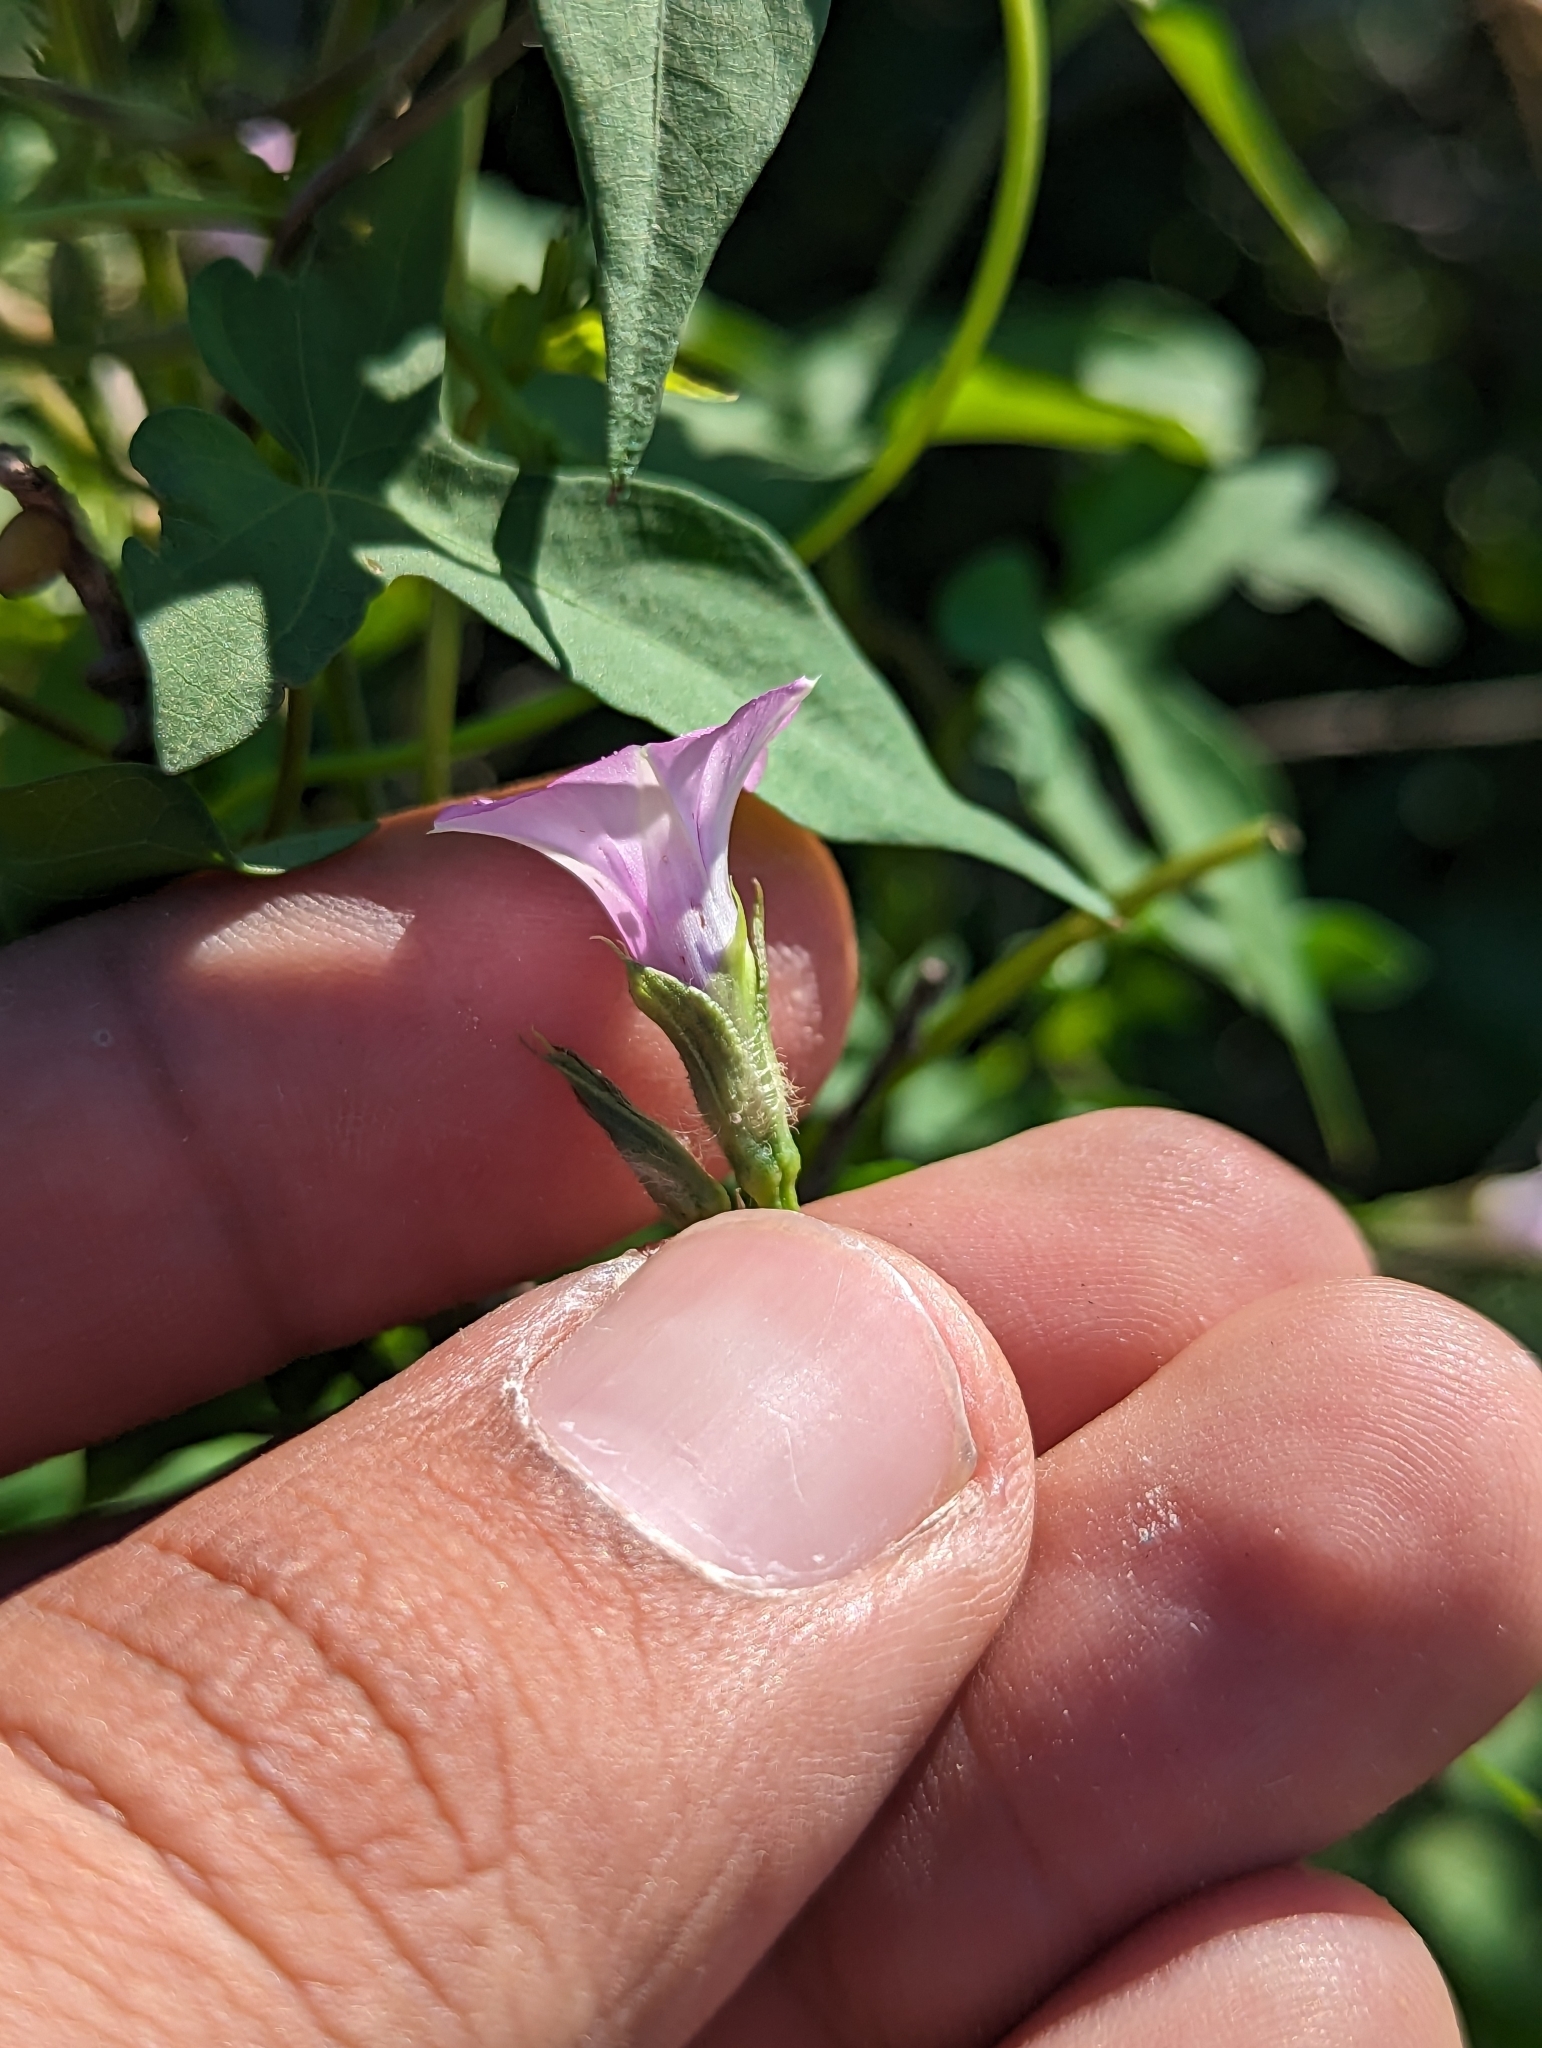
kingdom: Plantae
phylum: Tracheophyta
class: Magnoliopsida
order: Solanales
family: Convolvulaceae
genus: Ipomoea
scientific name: Ipomoea triloba
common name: Little-bell
